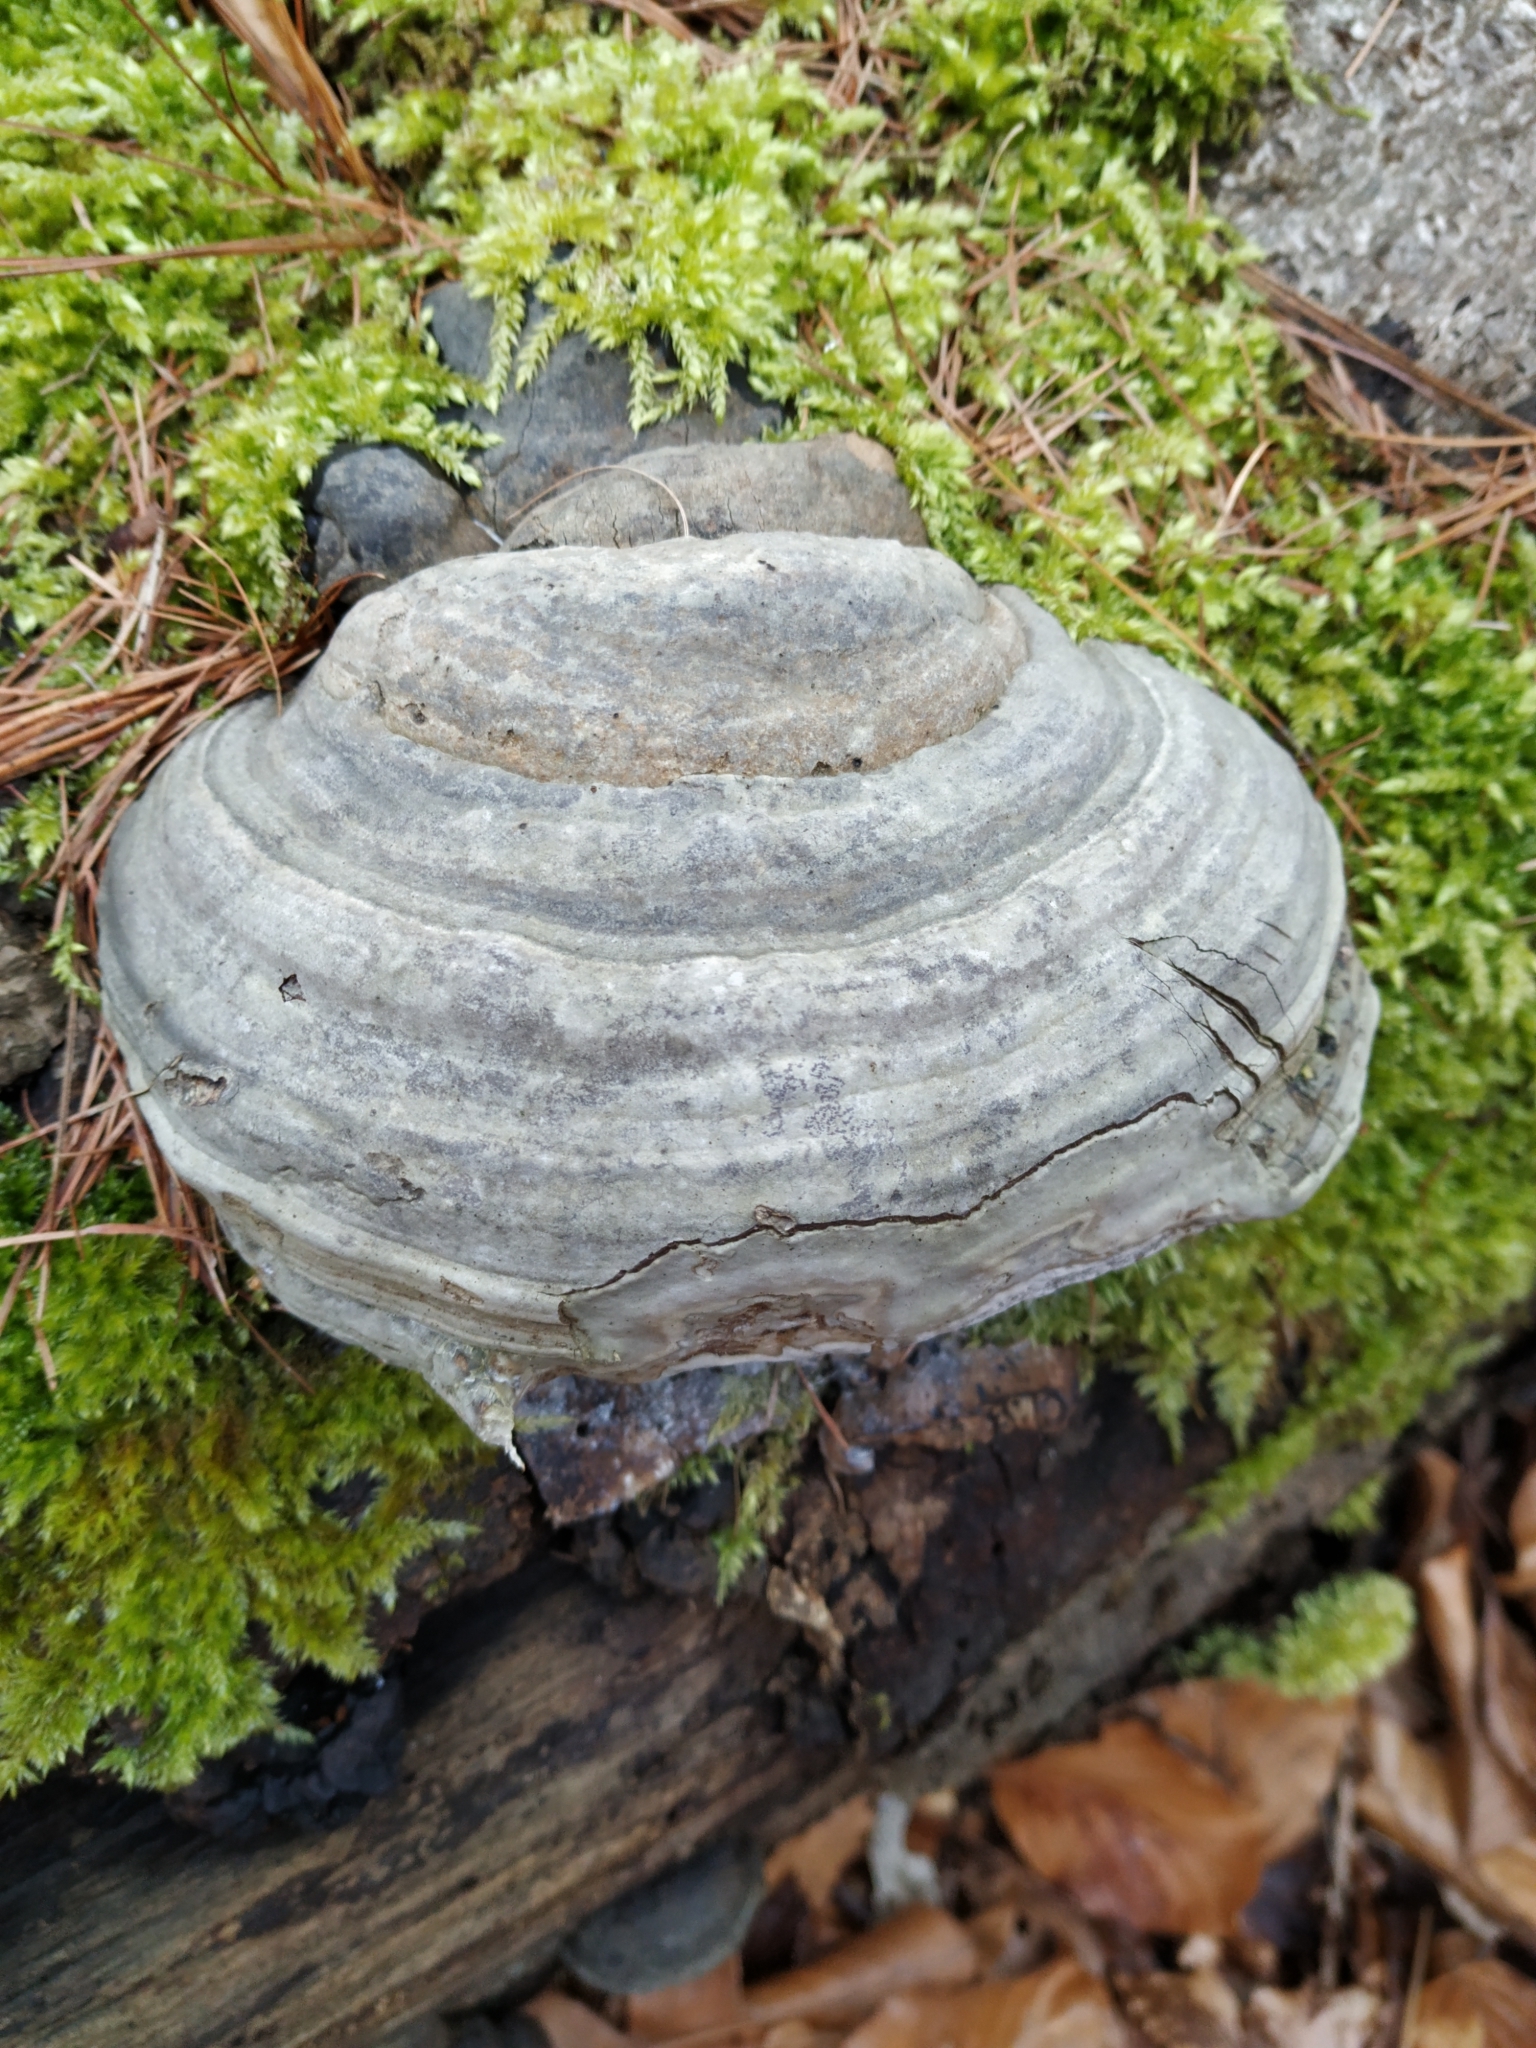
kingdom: Fungi
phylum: Basidiomycota
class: Agaricomycetes
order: Polyporales
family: Polyporaceae
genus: Fomes
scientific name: Fomes fomentarius
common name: Hoof fungus
